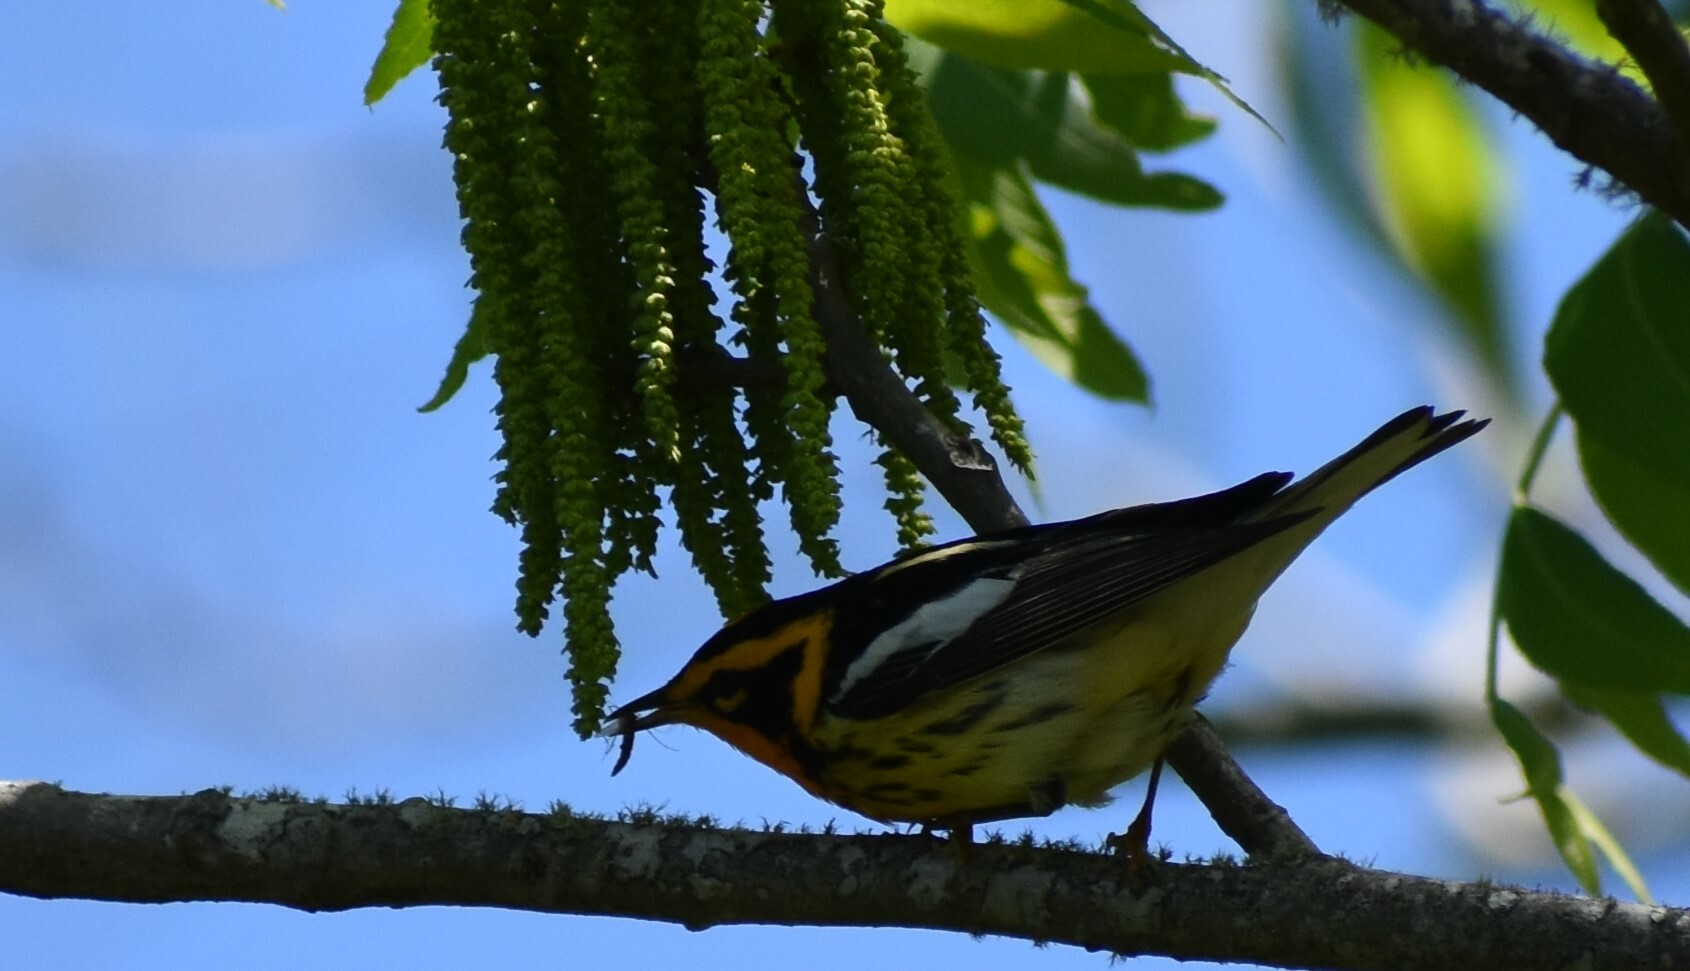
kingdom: Animalia
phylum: Chordata
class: Aves
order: Passeriformes
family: Parulidae
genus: Setophaga
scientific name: Setophaga fusca
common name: Blackburnian warbler
